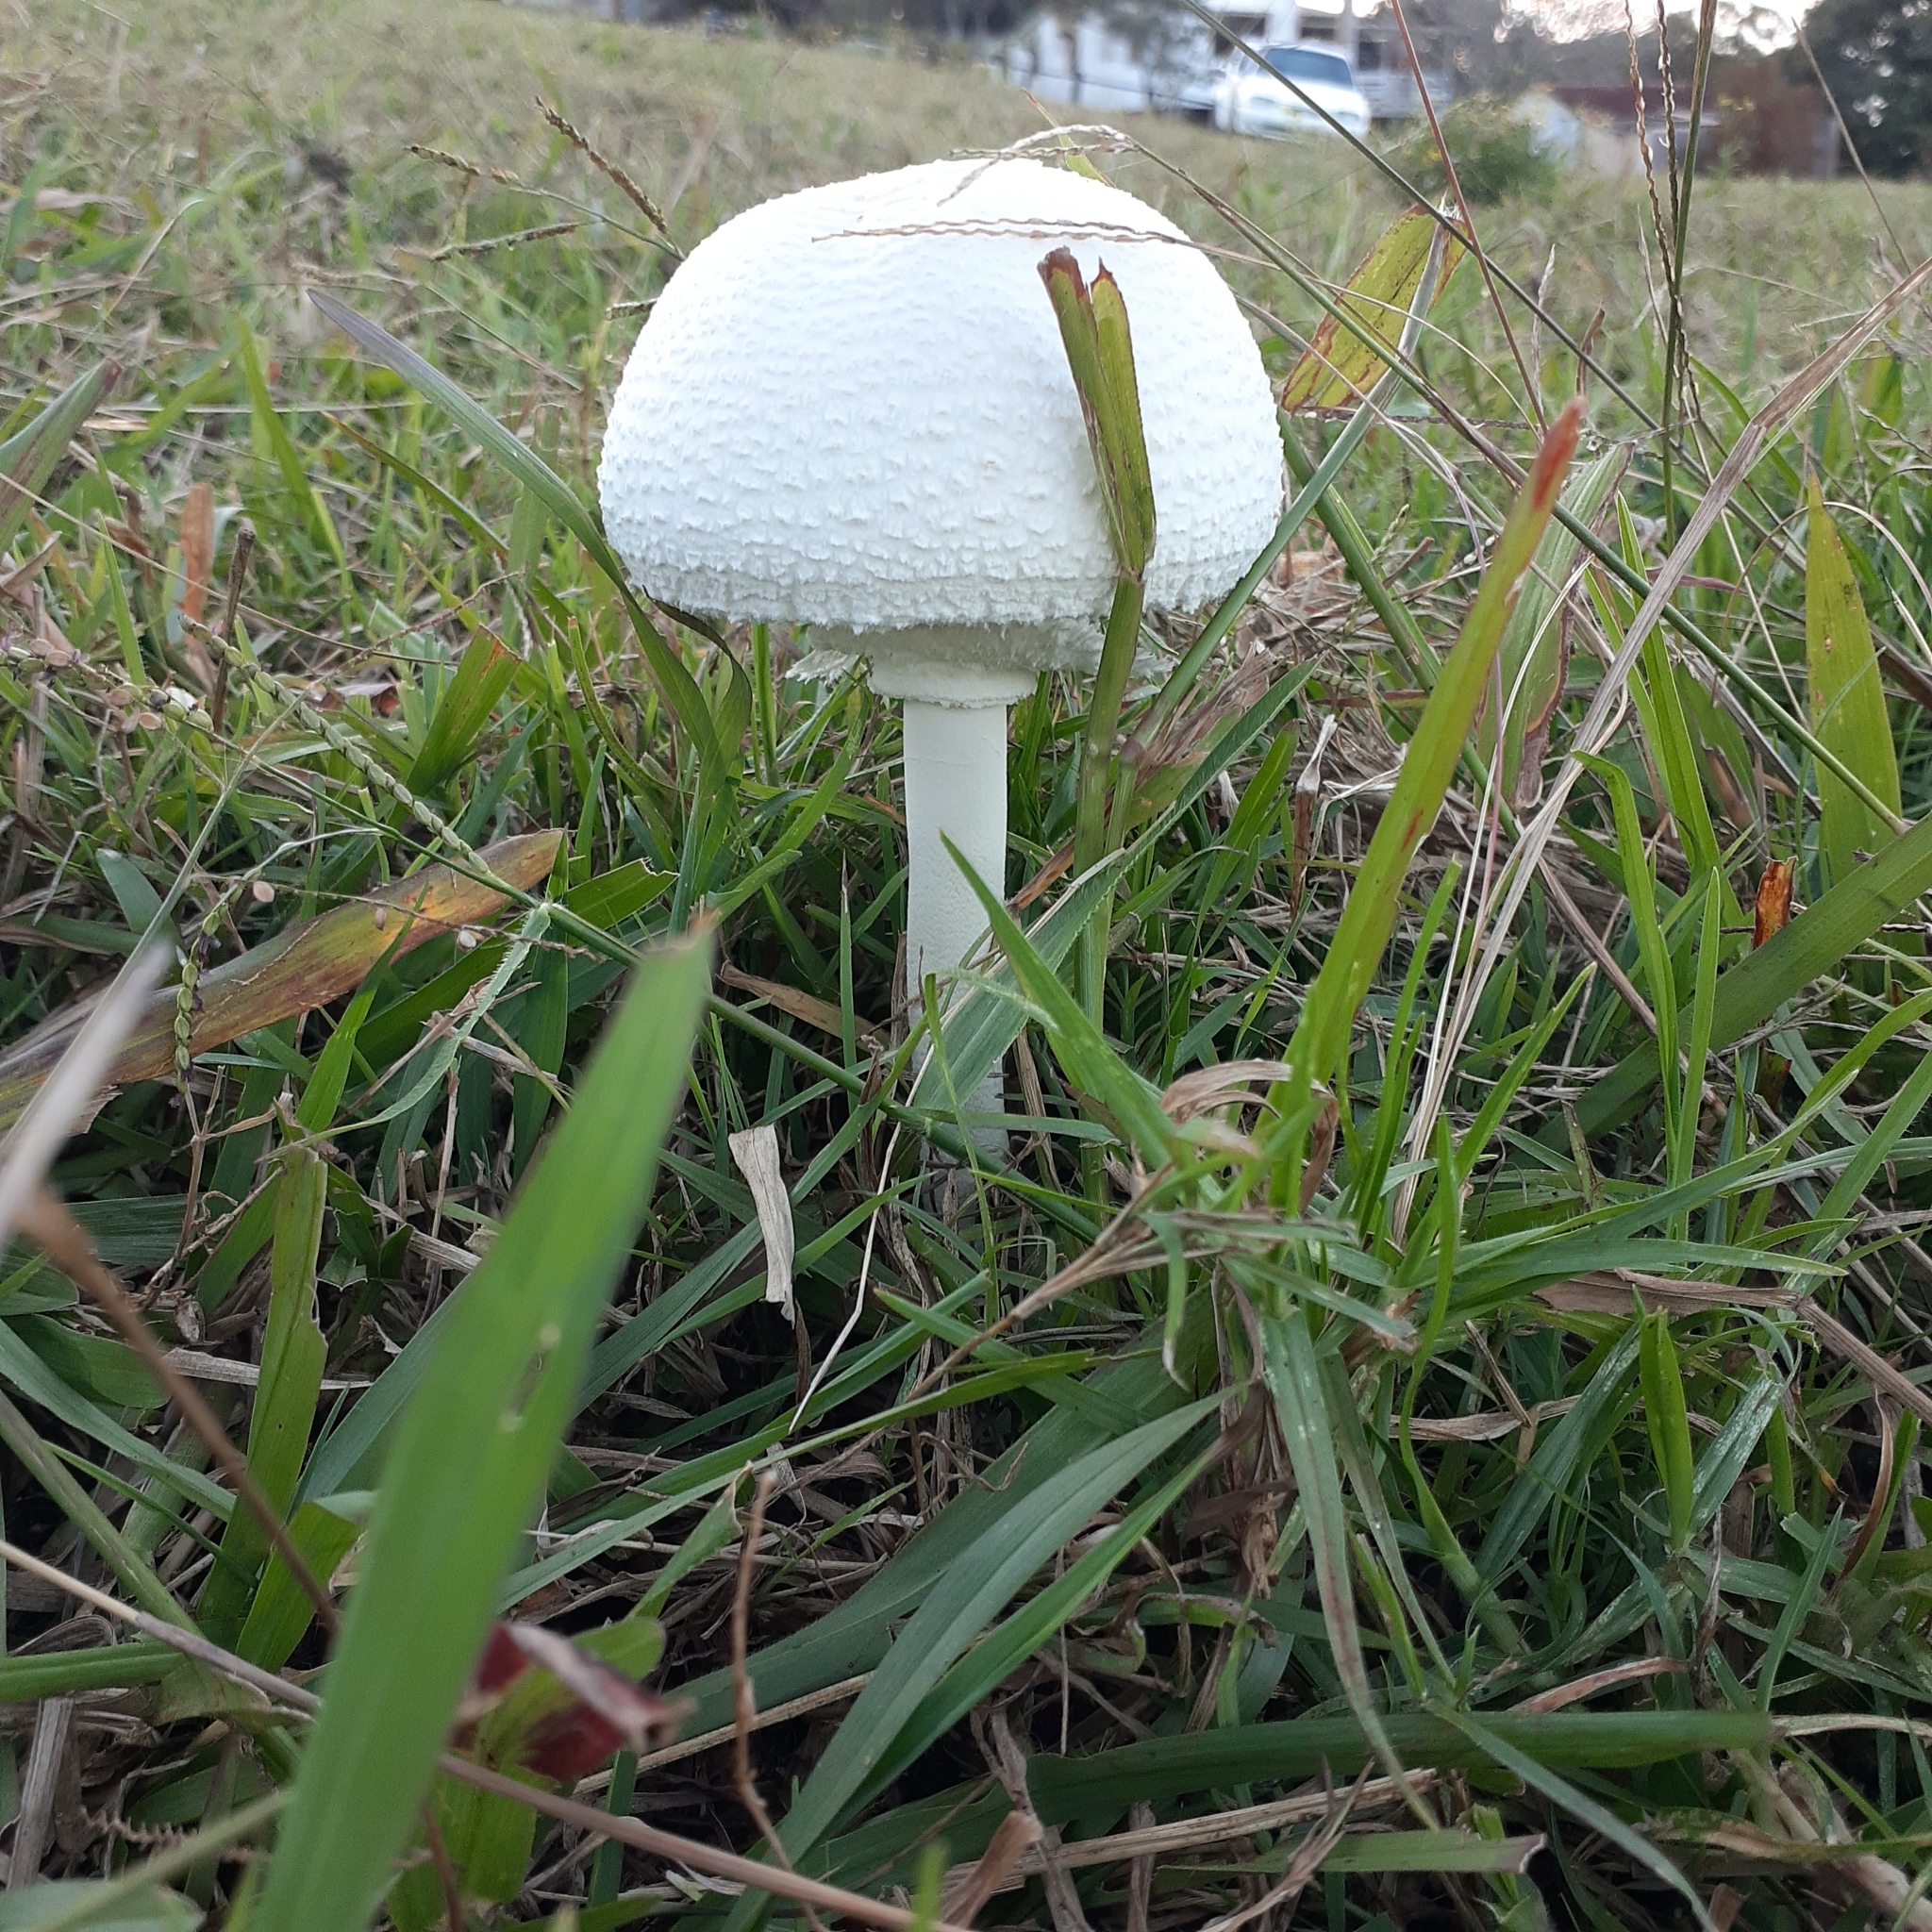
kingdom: Fungi
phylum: Basidiomycota
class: Agaricomycetes
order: Agaricales
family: Agaricaceae
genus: Macrolepiota
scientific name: Macrolepiota dolichaula
